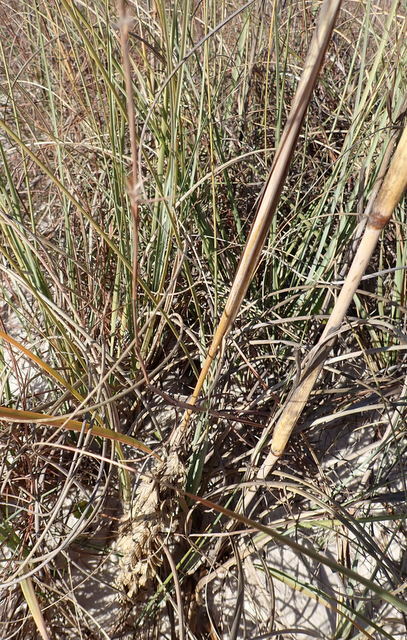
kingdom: Plantae
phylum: Tracheophyta
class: Liliopsida
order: Poales
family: Poaceae
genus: Uniola
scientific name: Uniola paniculata
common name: Seaside-oats
